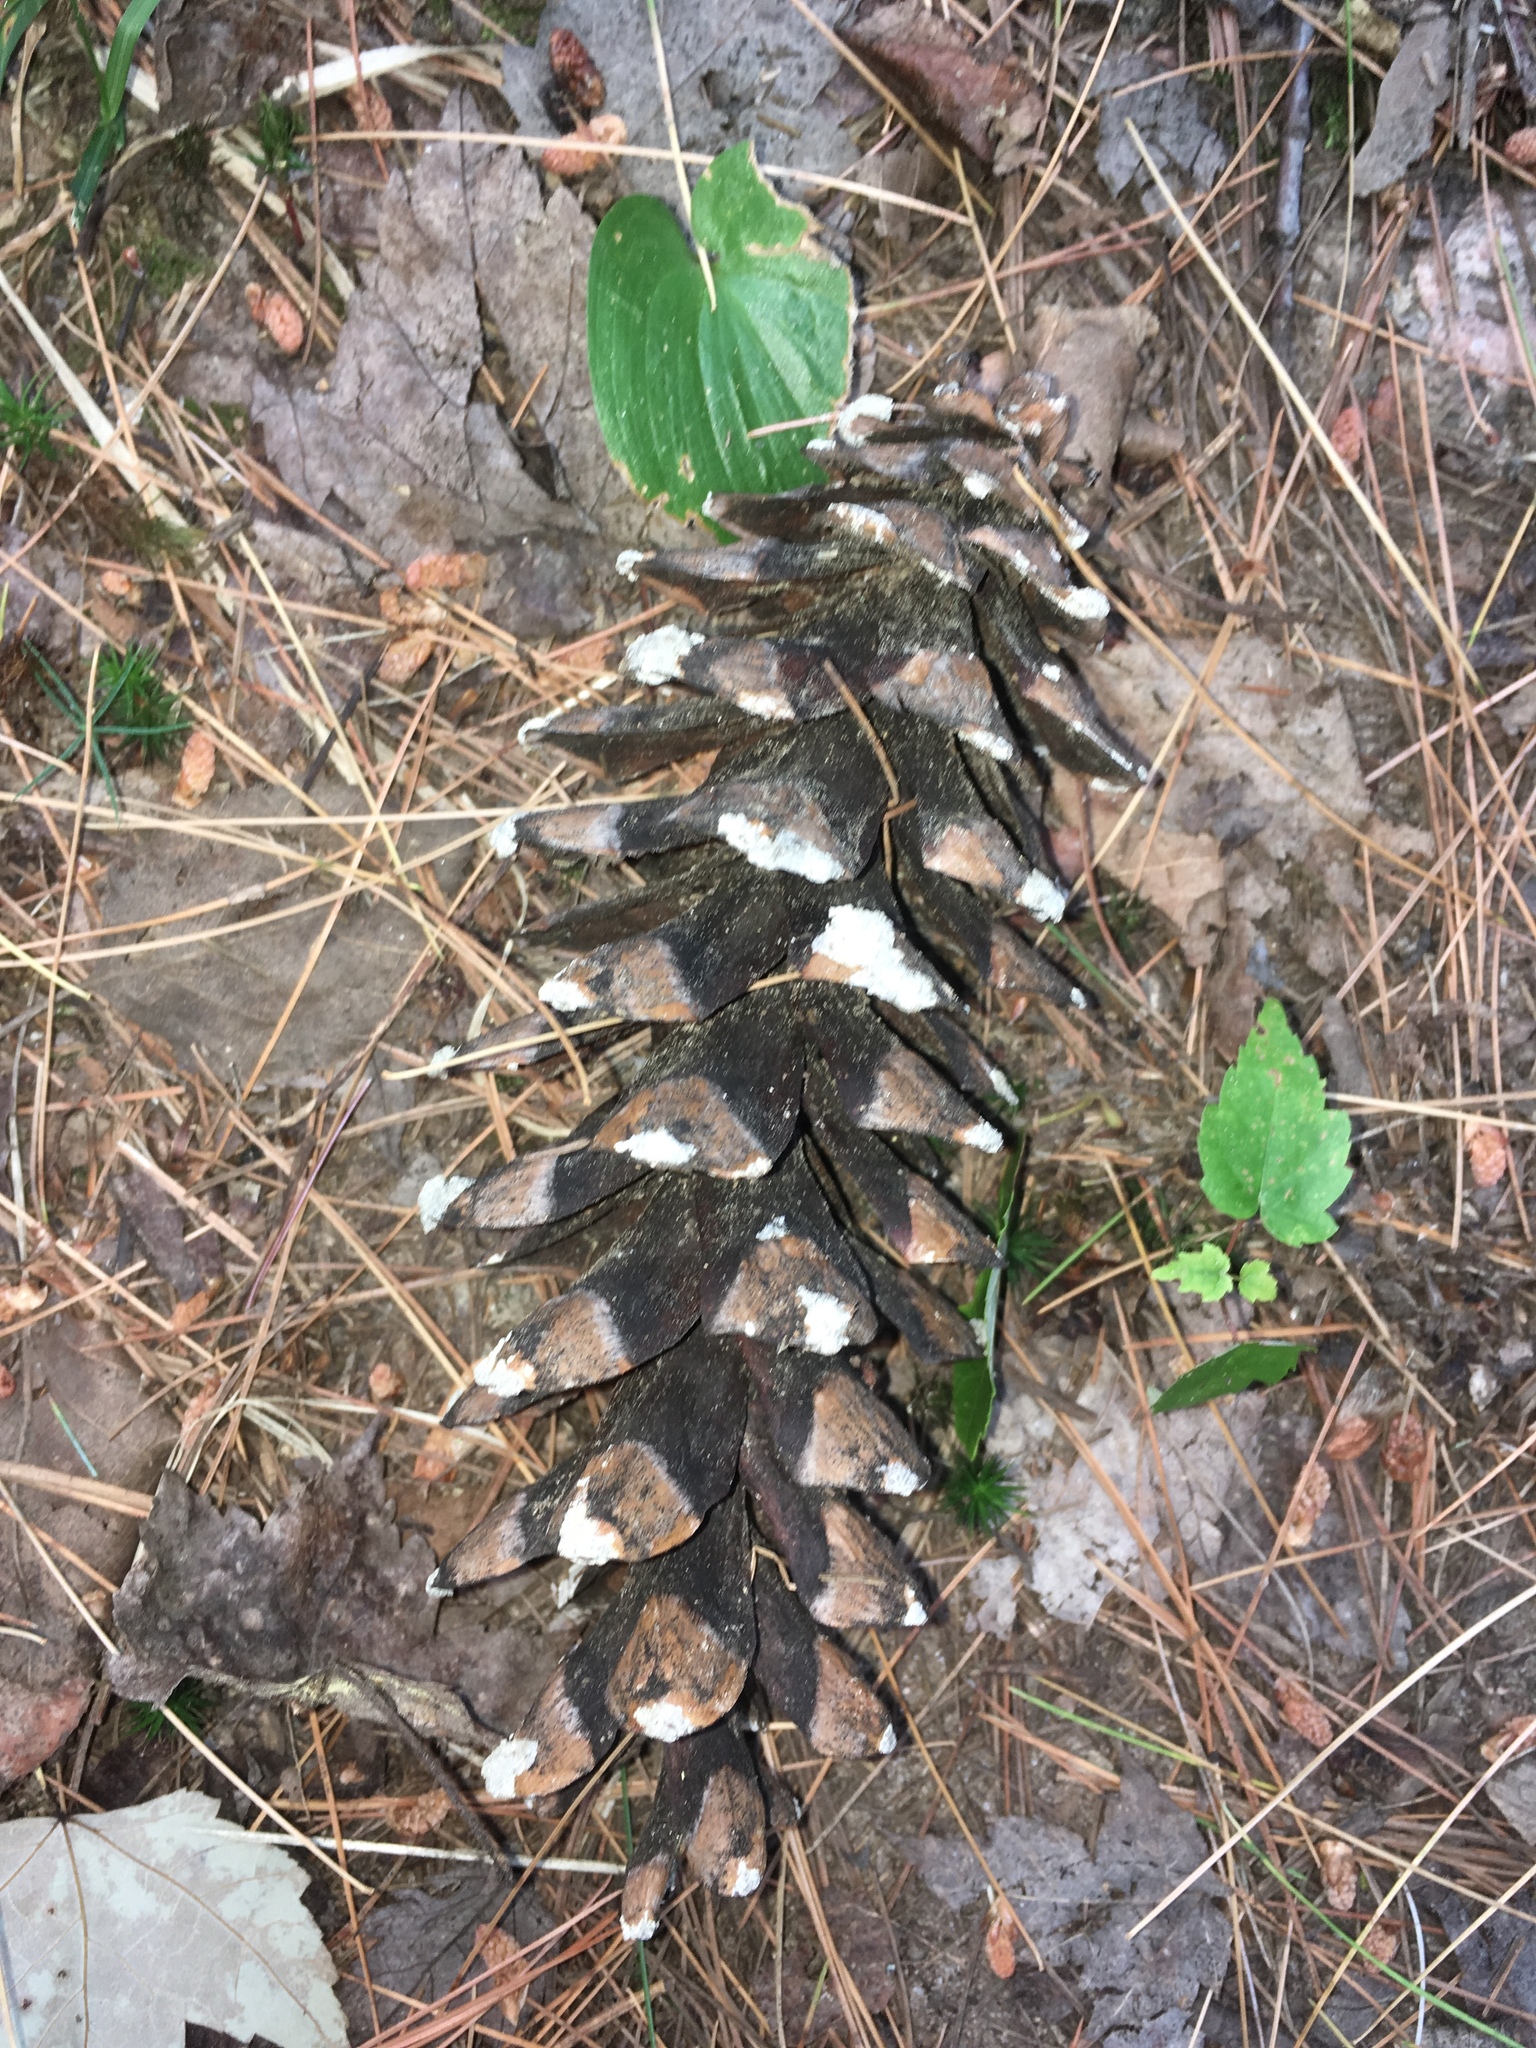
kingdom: Plantae
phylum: Tracheophyta
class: Pinopsida
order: Pinales
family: Pinaceae
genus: Pinus
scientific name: Pinus strobus
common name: Weymouth pine
